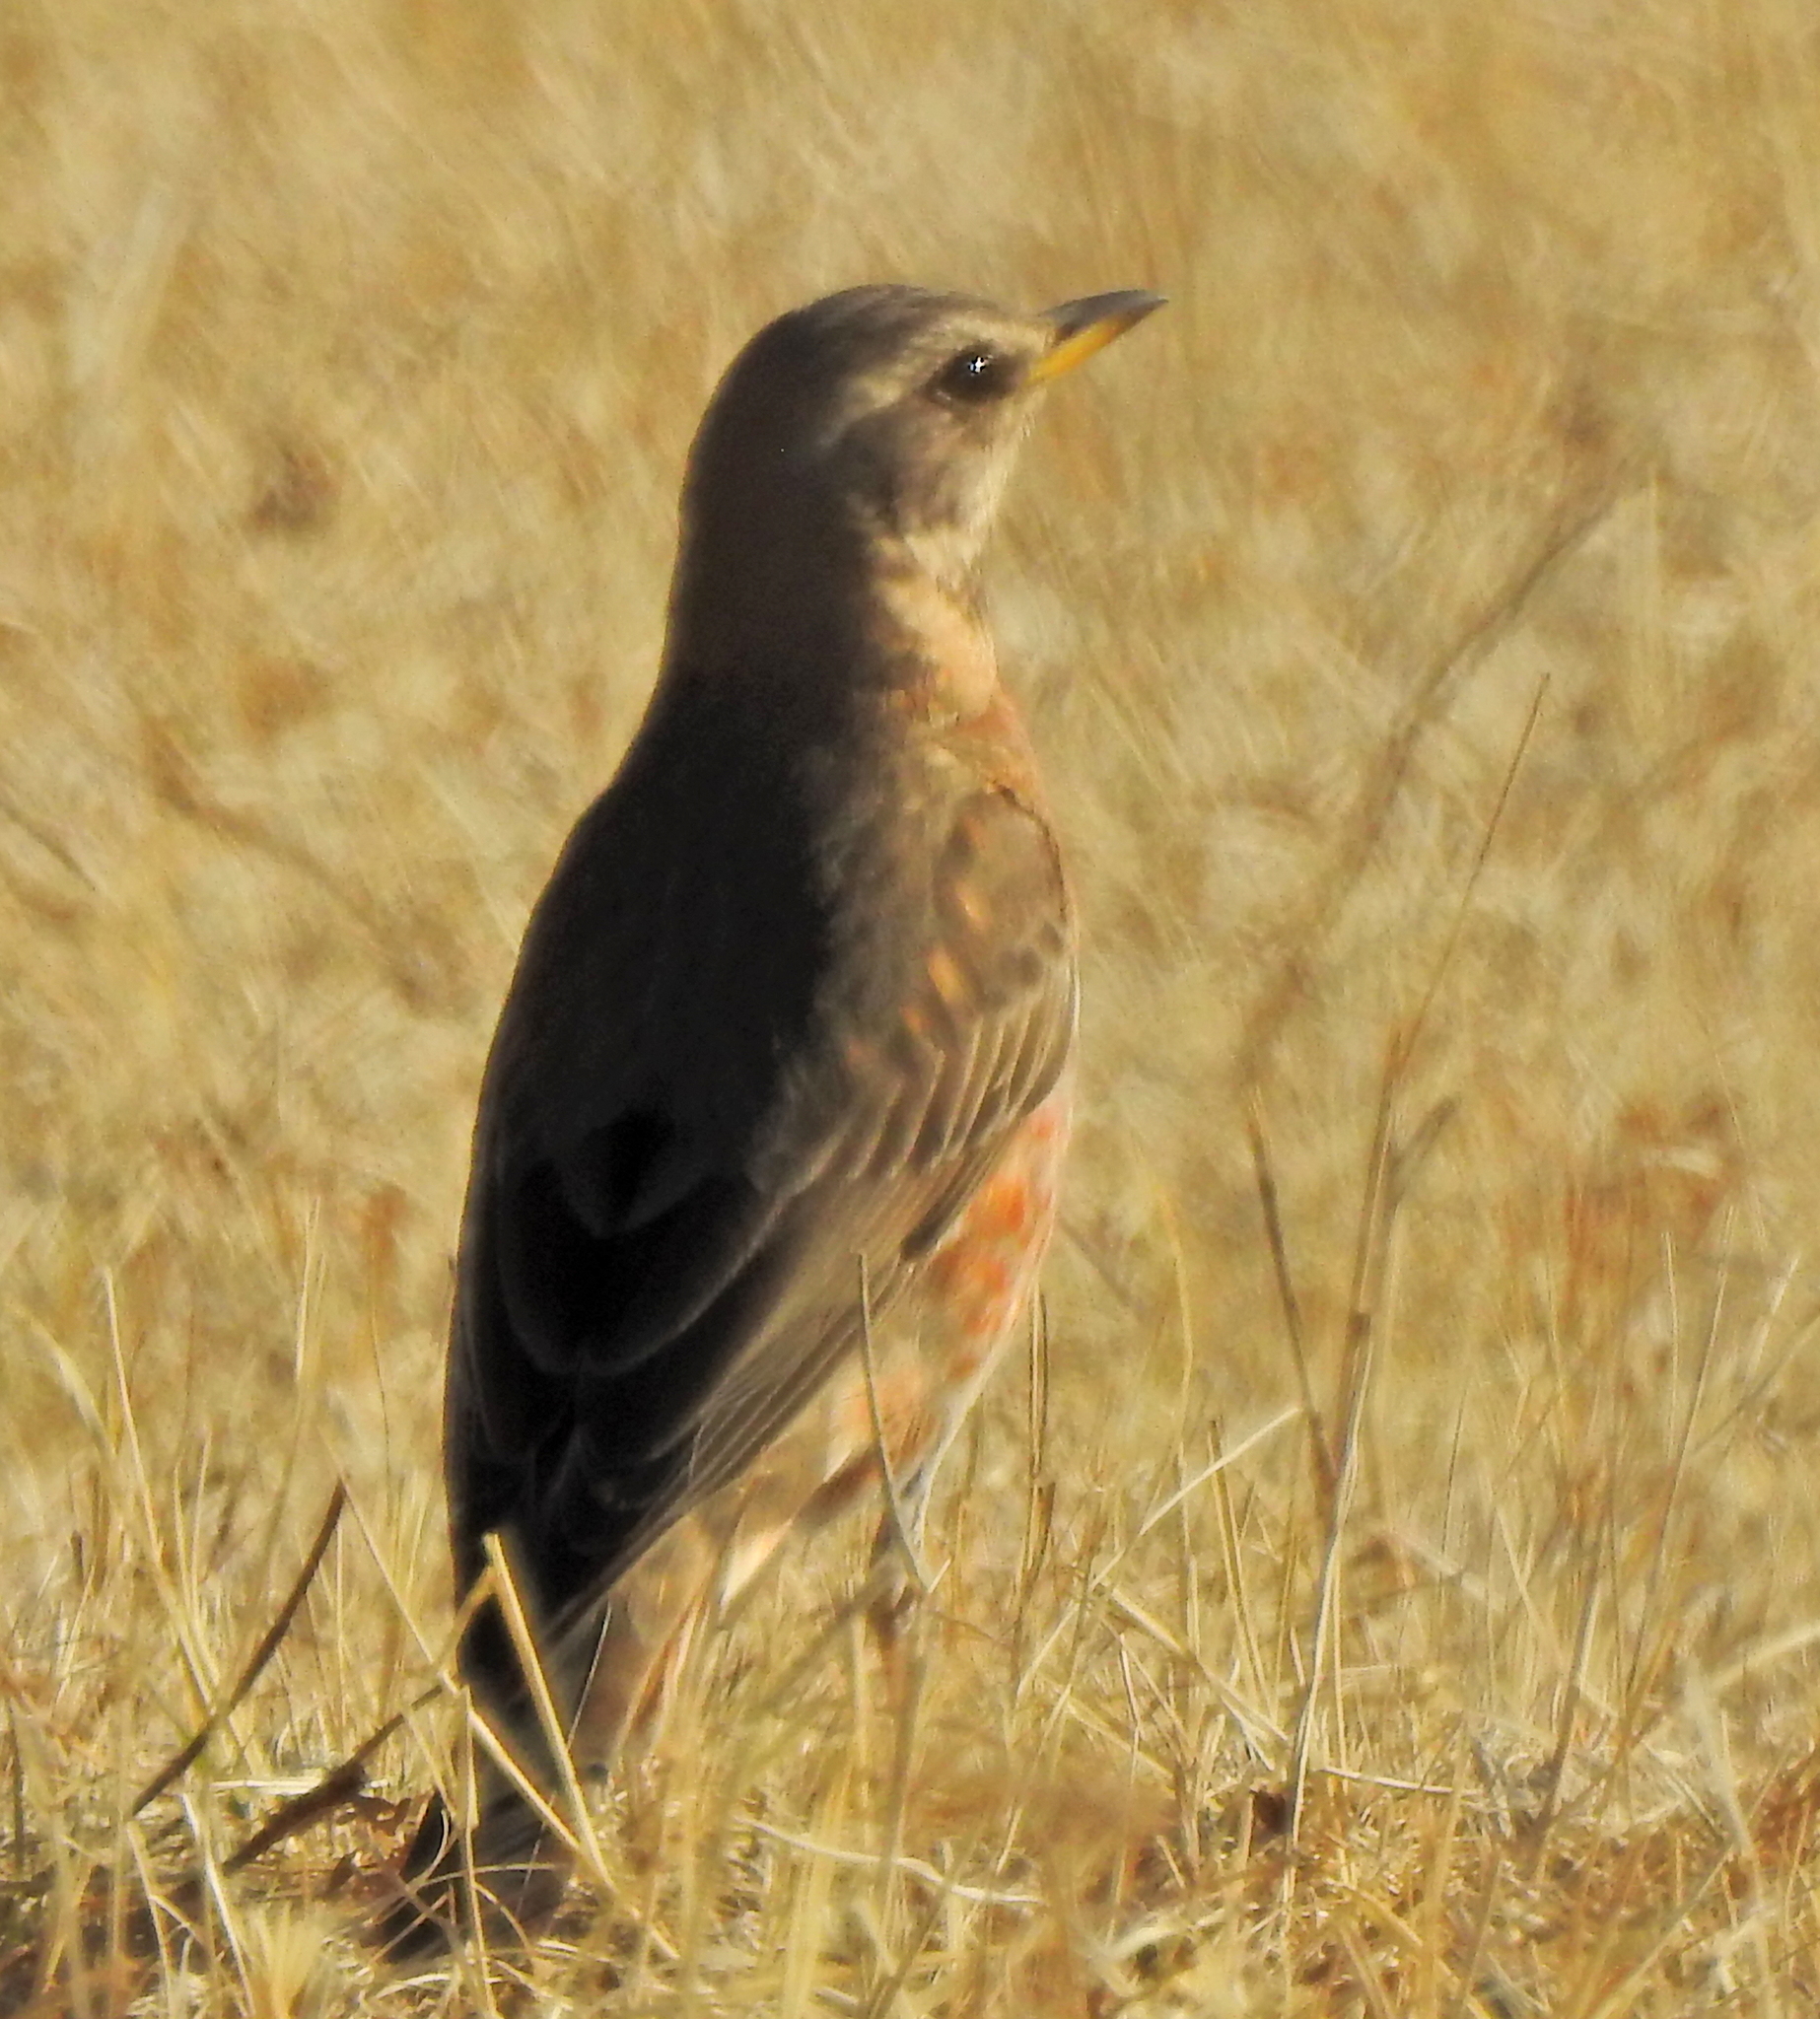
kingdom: Animalia
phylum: Chordata
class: Aves
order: Passeriformes
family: Turdidae
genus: Turdus
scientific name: Turdus naumanni
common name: Naumann's thrush
